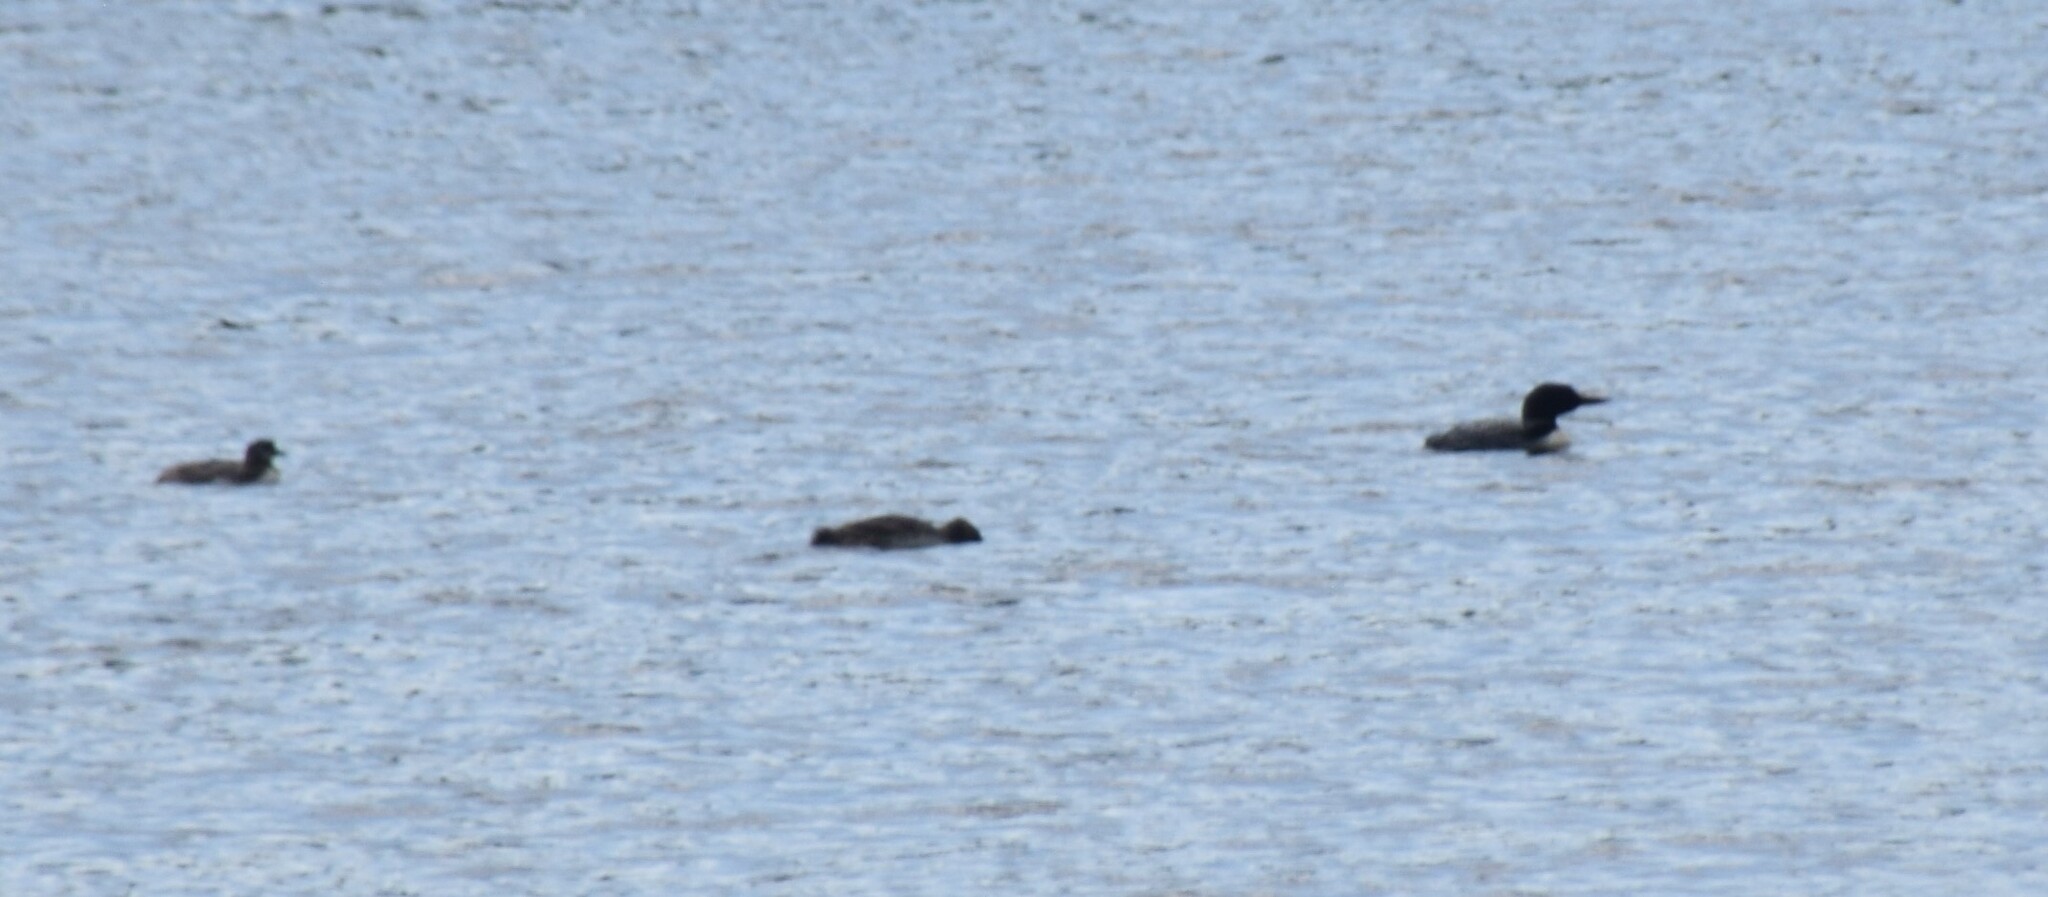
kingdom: Animalia
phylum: Chordata
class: Aves
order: Gaviiformes
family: Gaviidae
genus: Gavia
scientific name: Gavia immer
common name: Common loon
